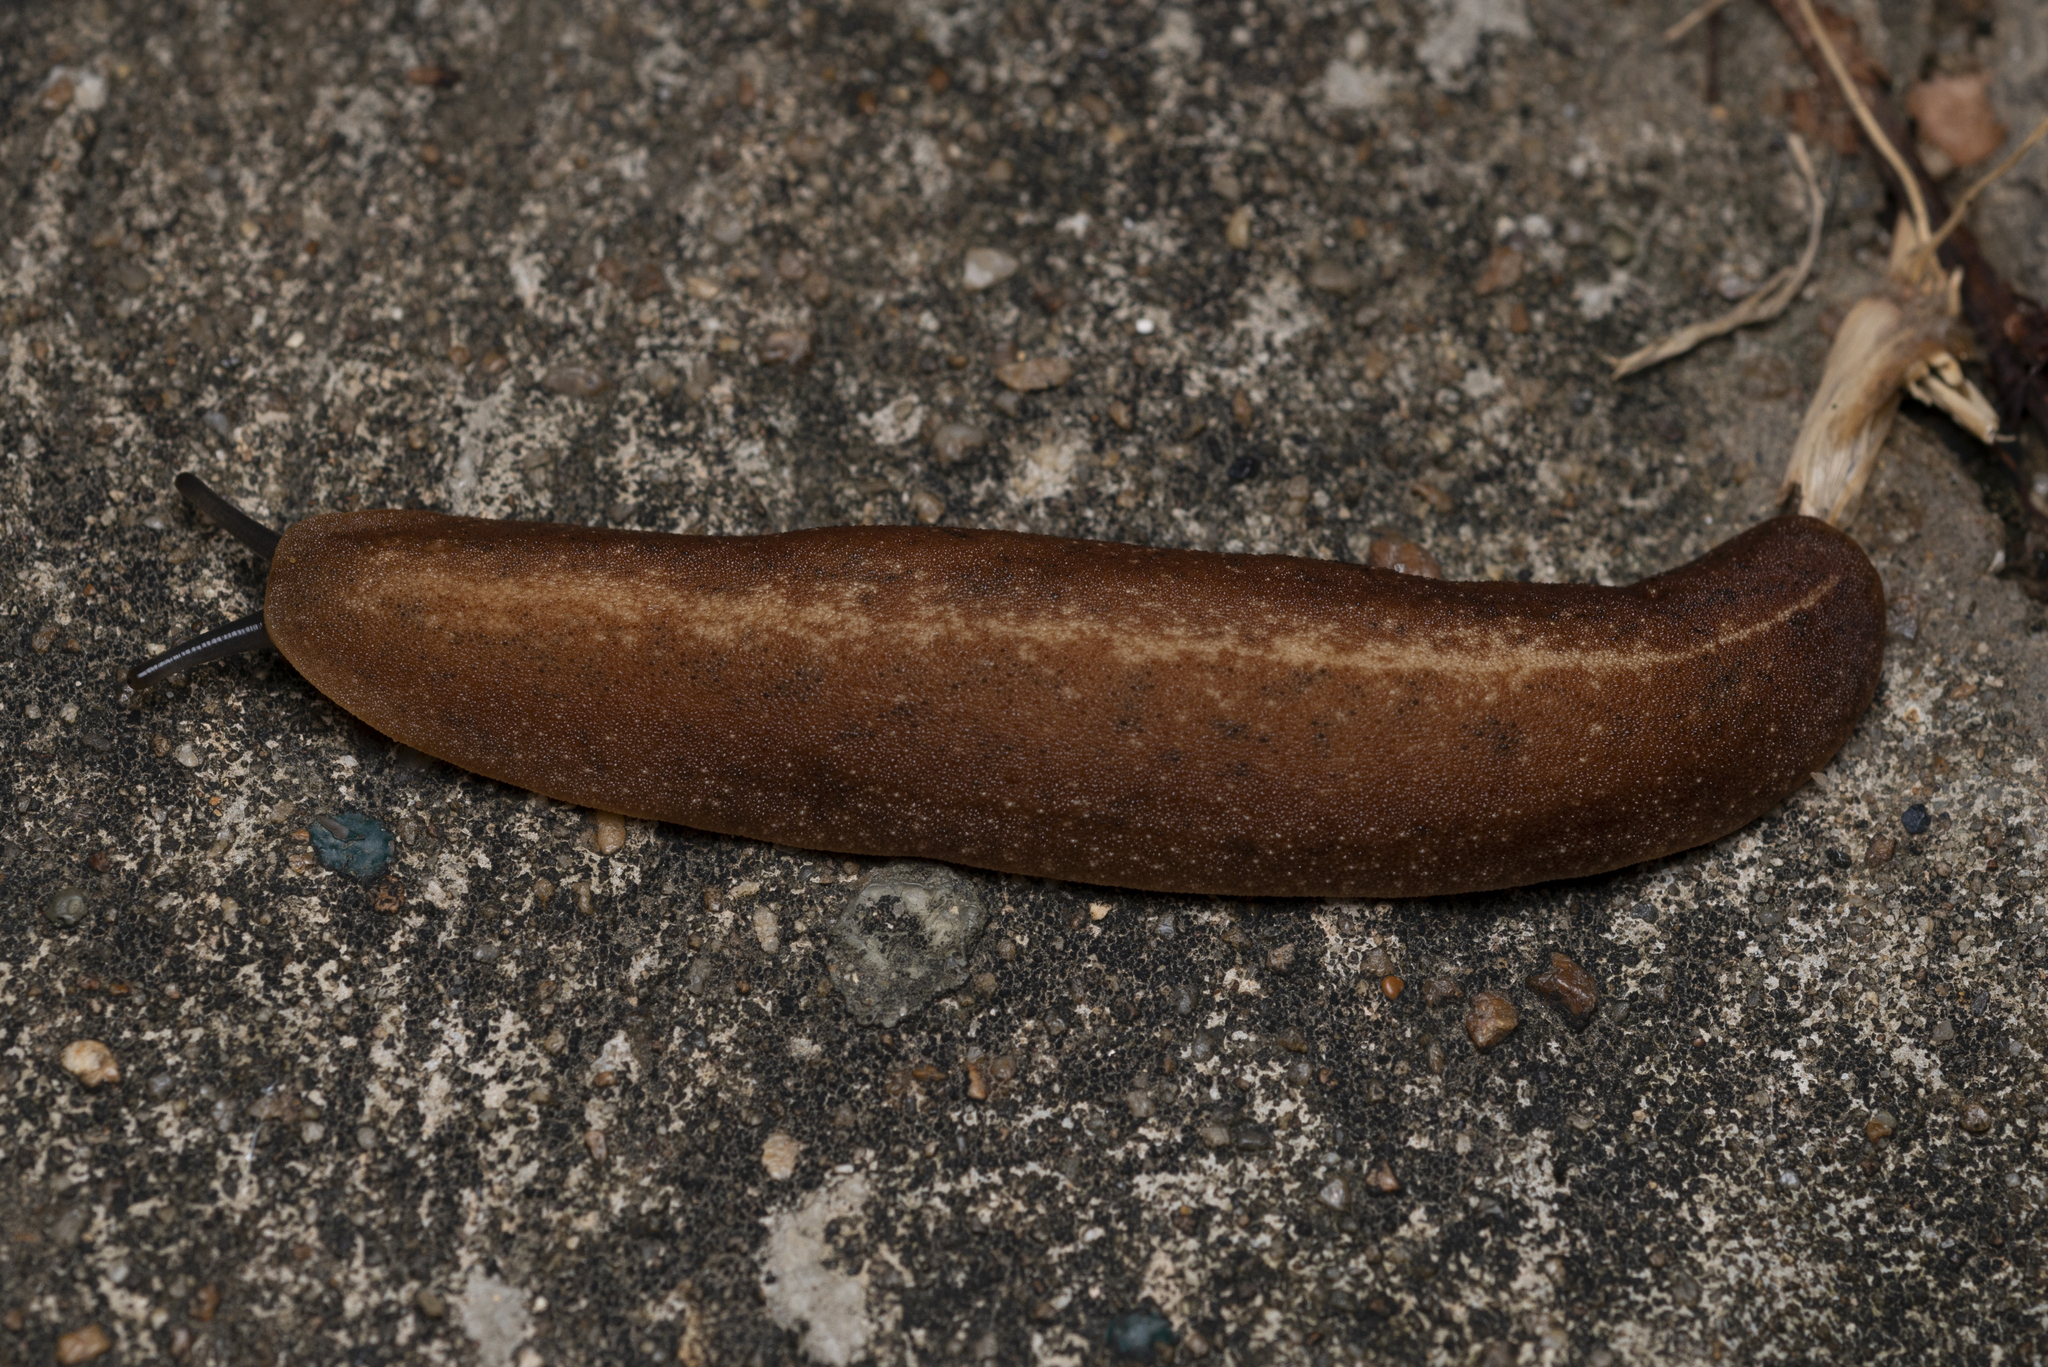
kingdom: Animalia
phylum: Mollusca
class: Gastropoda
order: Systellommatophora
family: Veronicellidae
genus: Laevicaulis
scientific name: Laevicaulis alte
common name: Tropical leatherleaf
